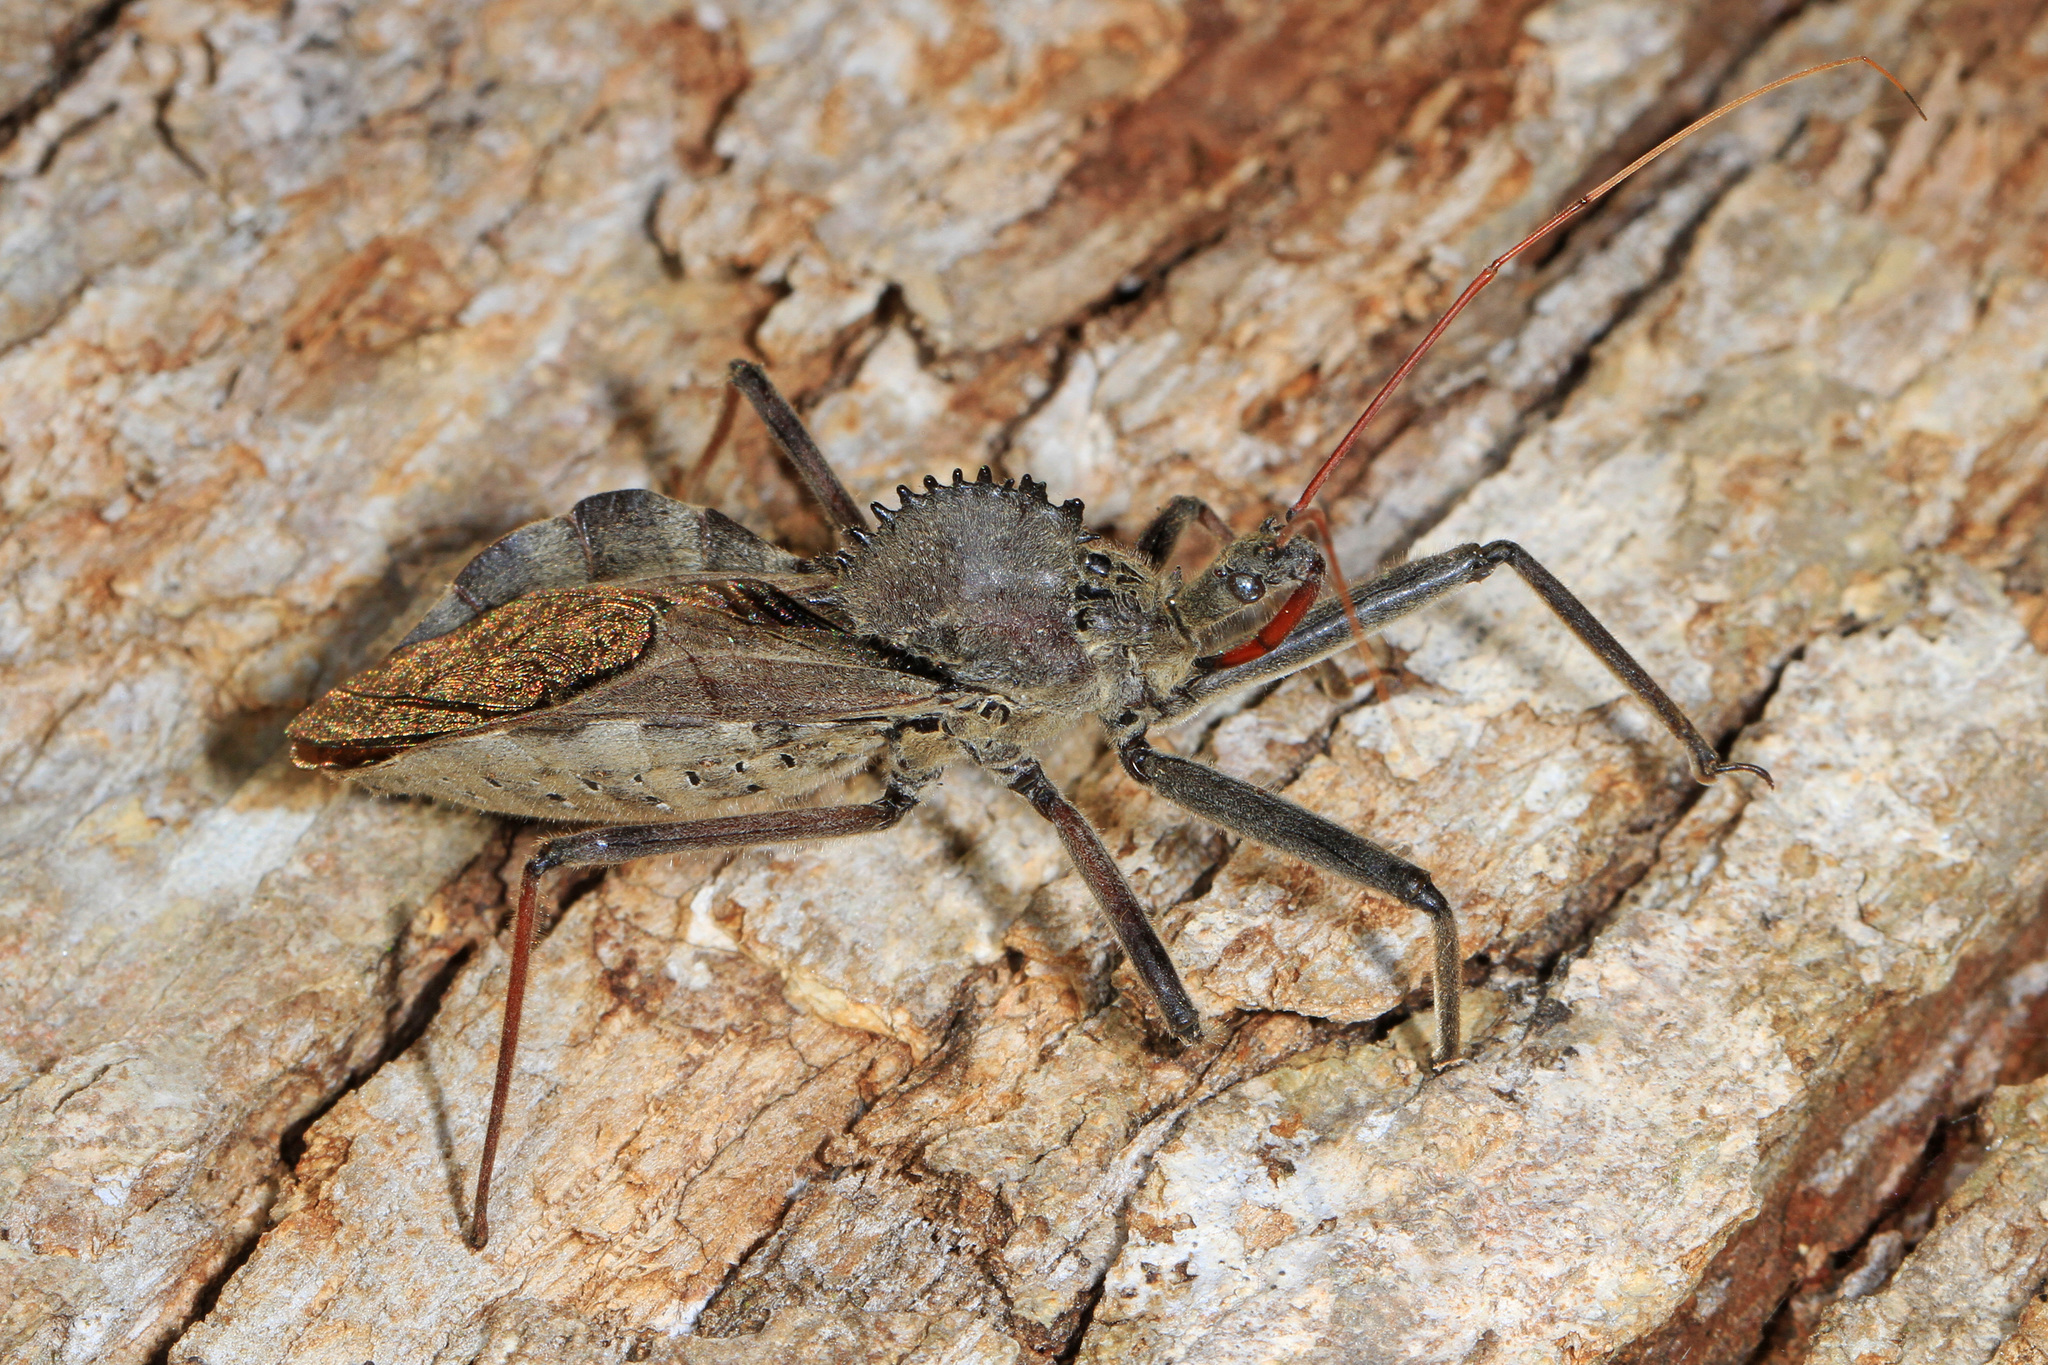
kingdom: Animalia
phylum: Arthropoda
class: Insecta
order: Hemiptera
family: Reduviidae
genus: Arilus
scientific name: Arilus cristatus
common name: North american wheel bug
